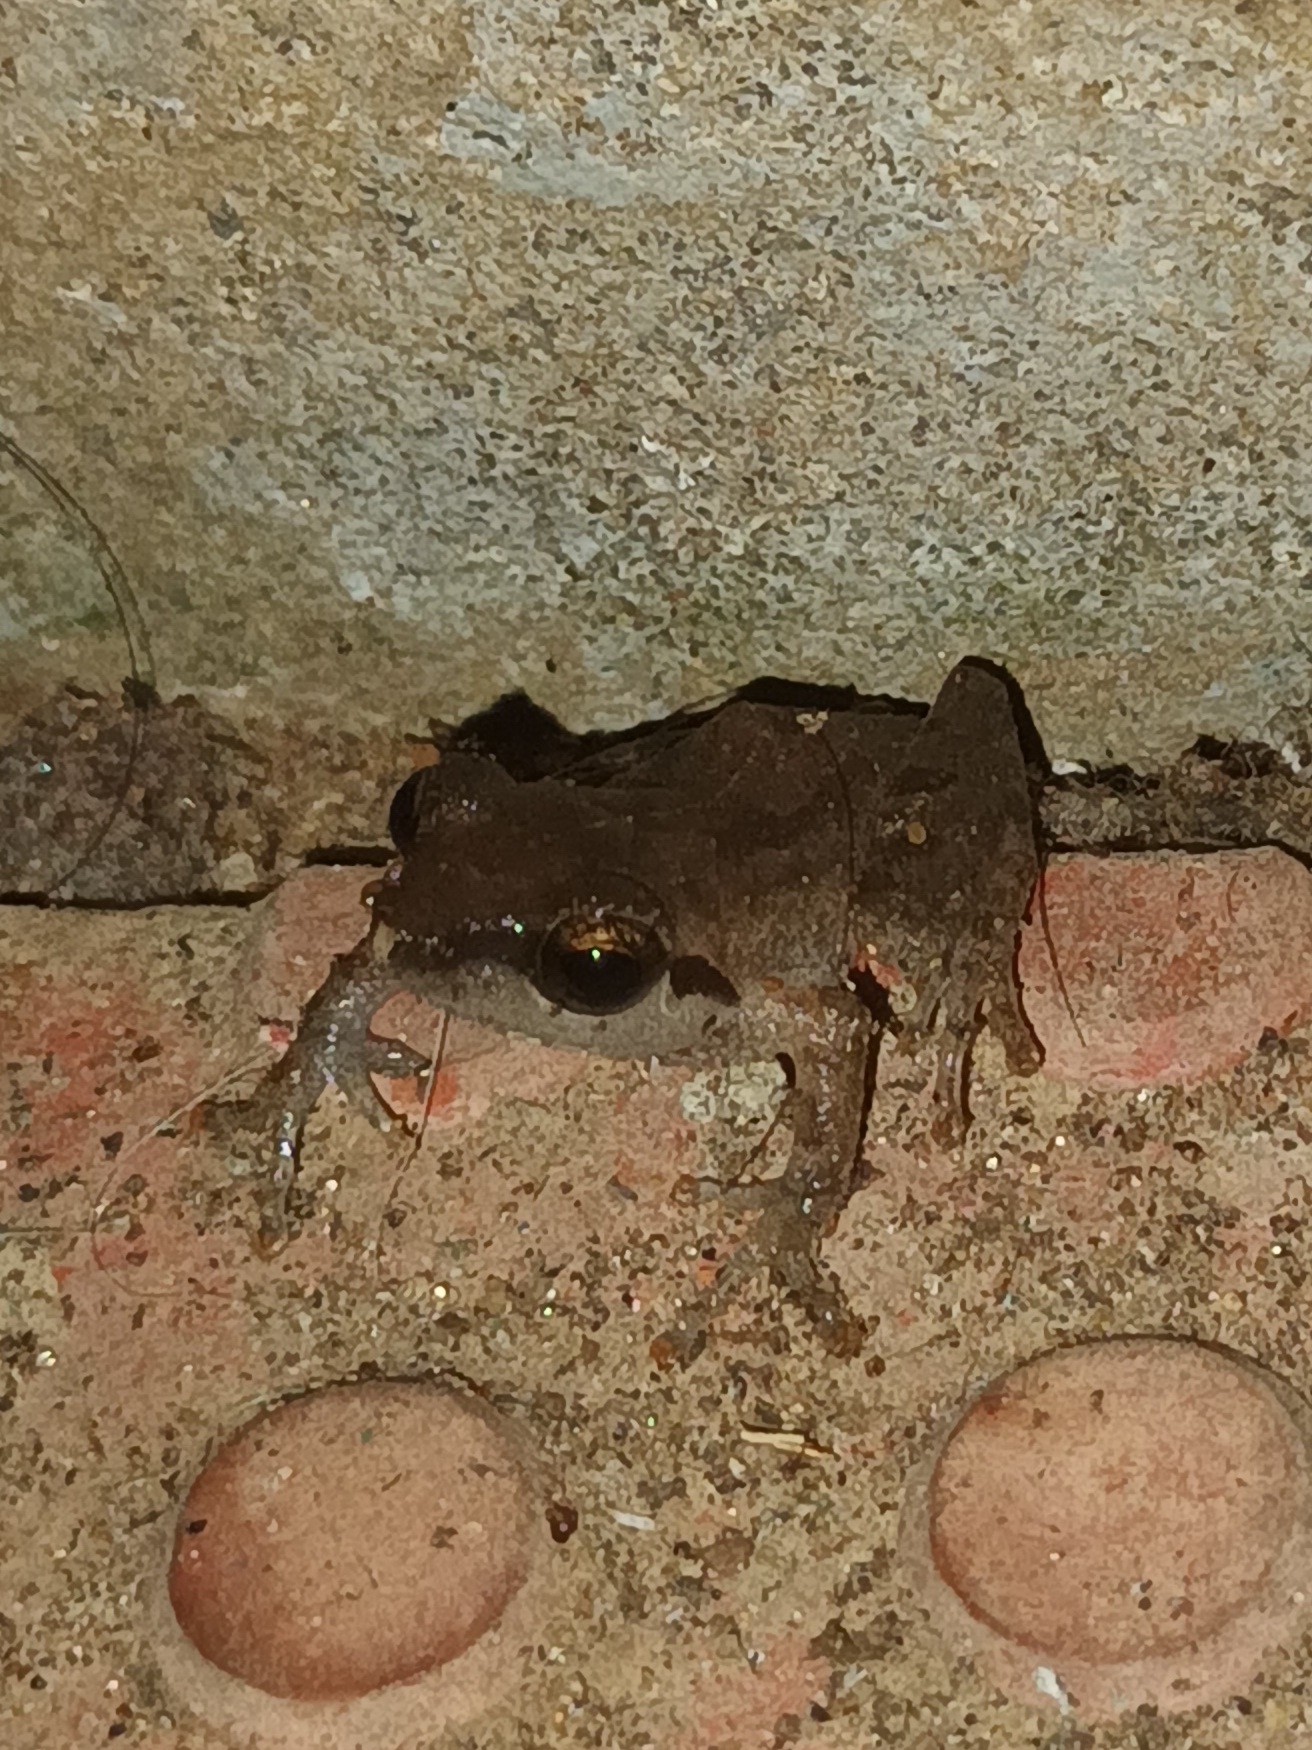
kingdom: Animalia
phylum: Chordata
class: Amphibia
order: Anura
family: Rhacophoridae
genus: Pseudophilautus
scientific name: Pseudophilautus kani
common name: Kani bush frog
